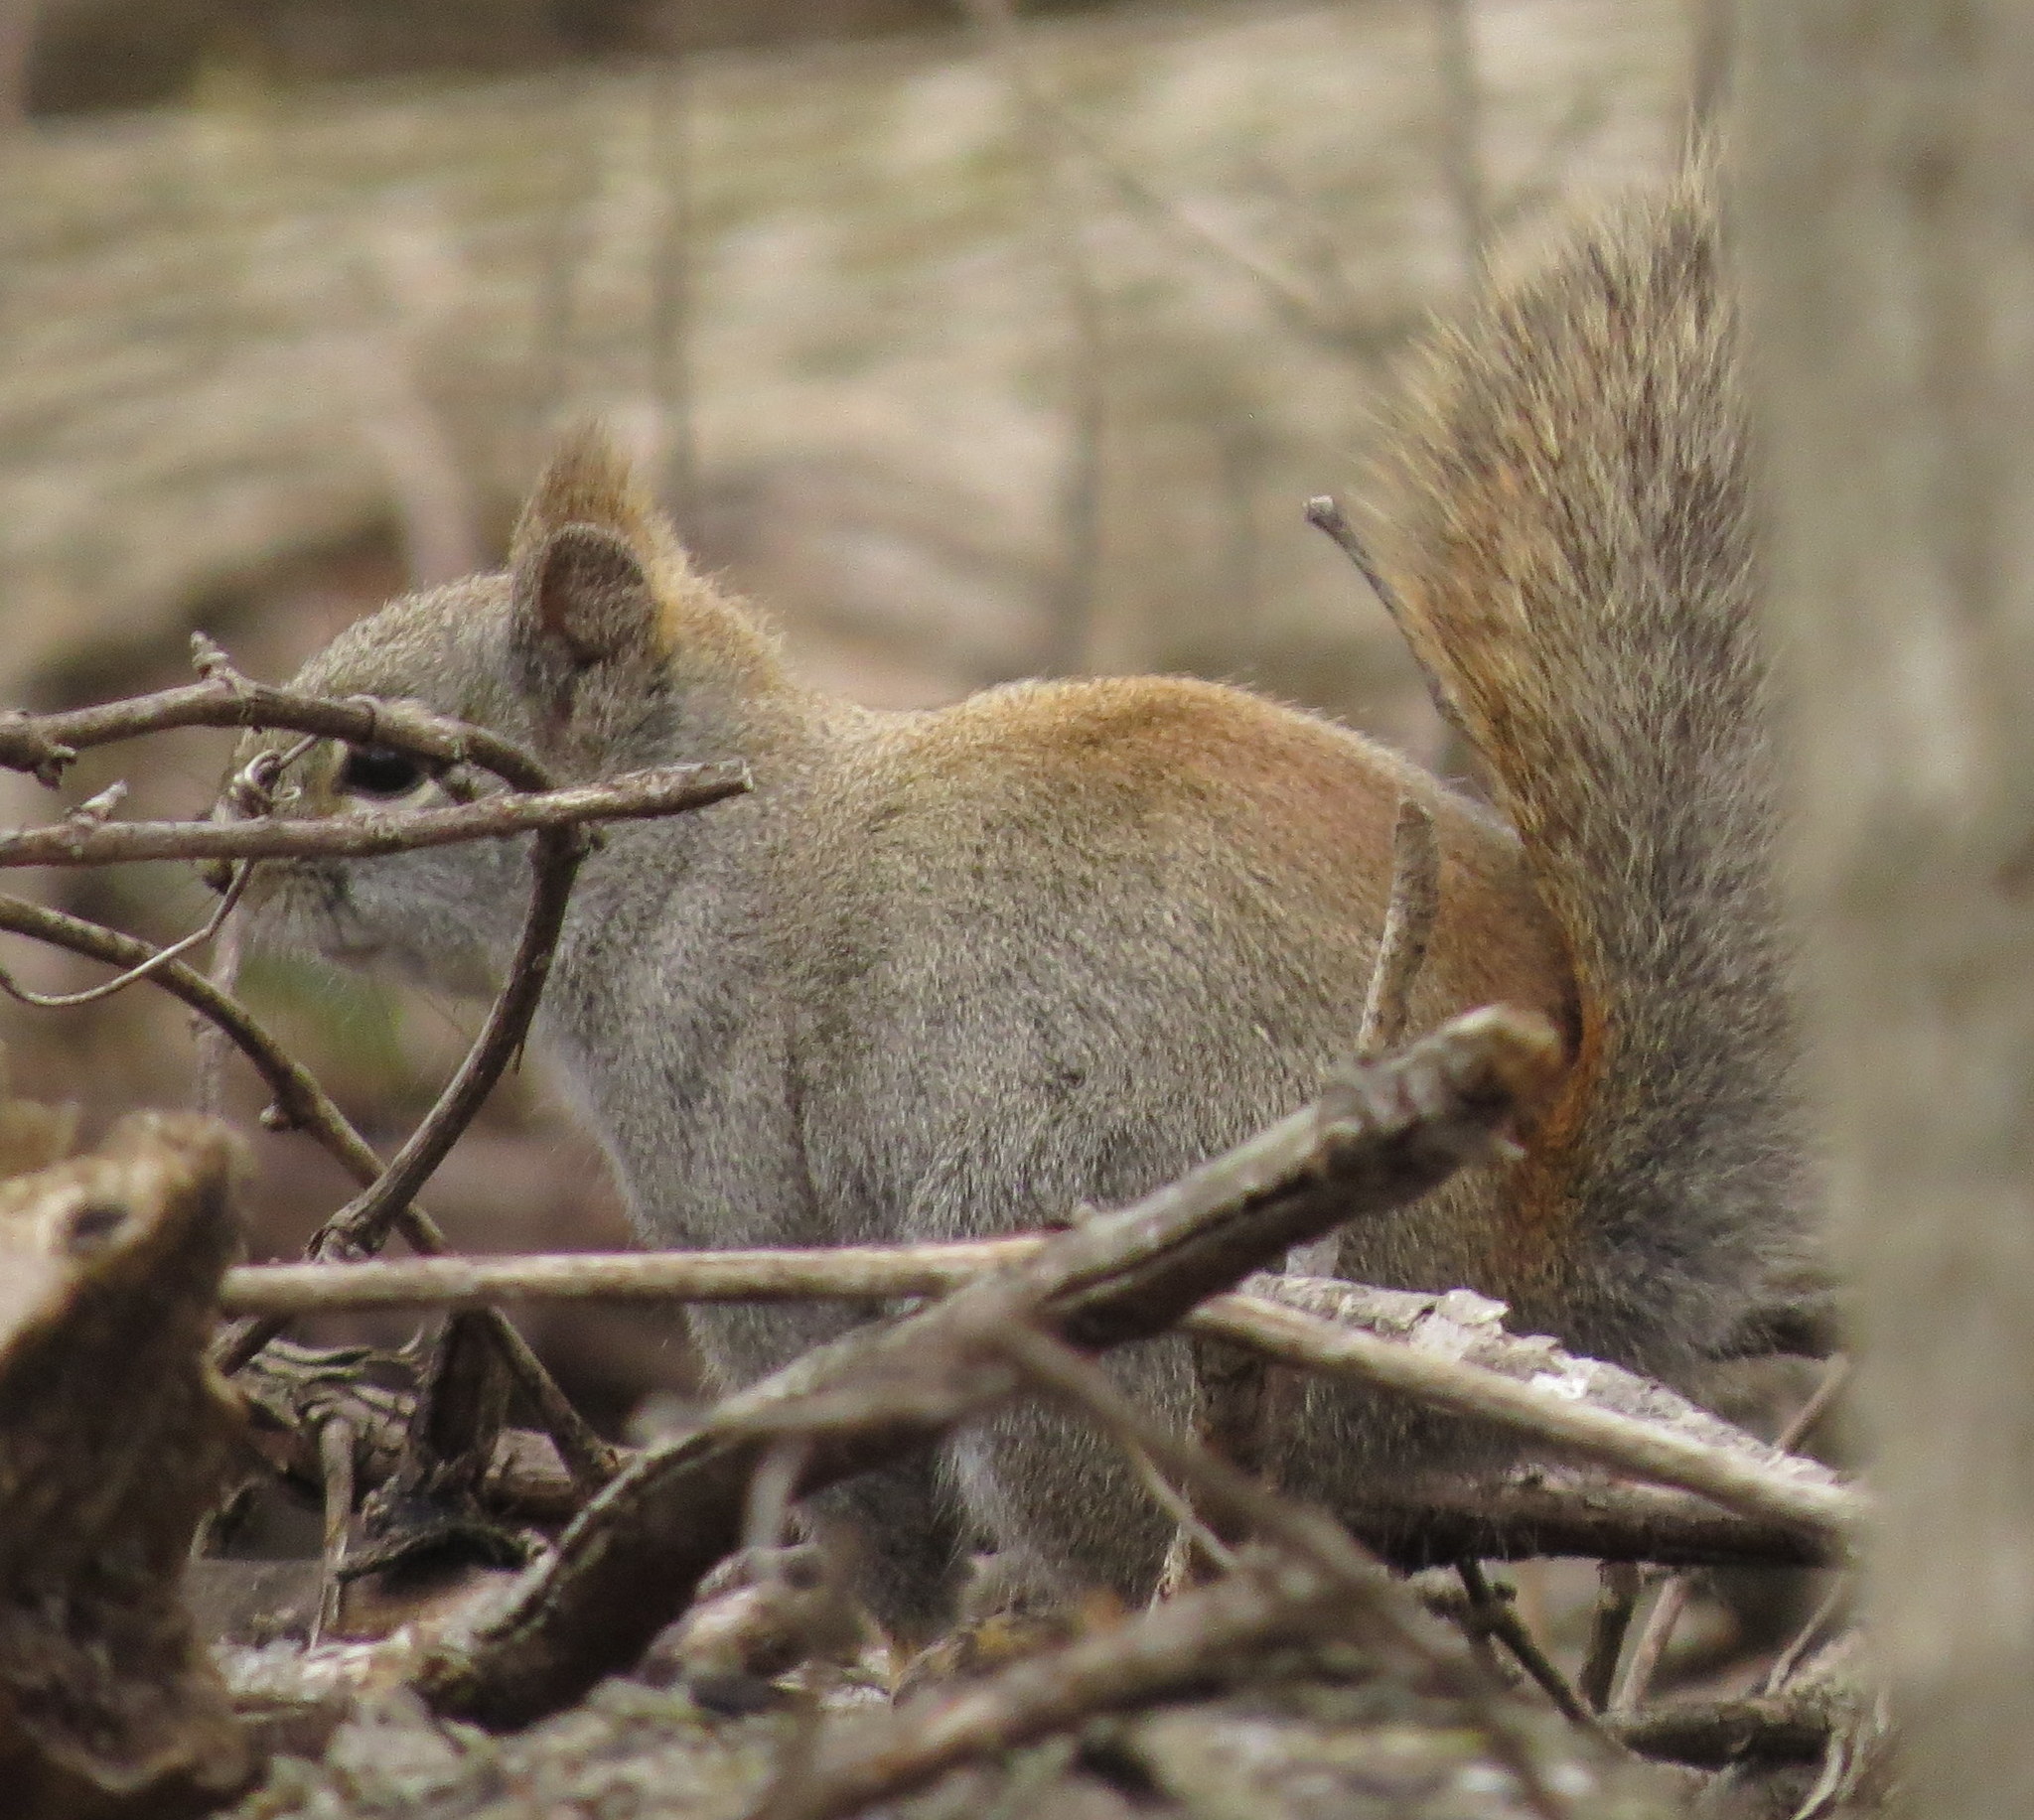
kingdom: Animalia
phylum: Chordata
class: Mammalia
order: Rodentia
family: Sciuridae
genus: Tamiasciurus
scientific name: Tamiasciurus hudsonicus
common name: Red squirrel
